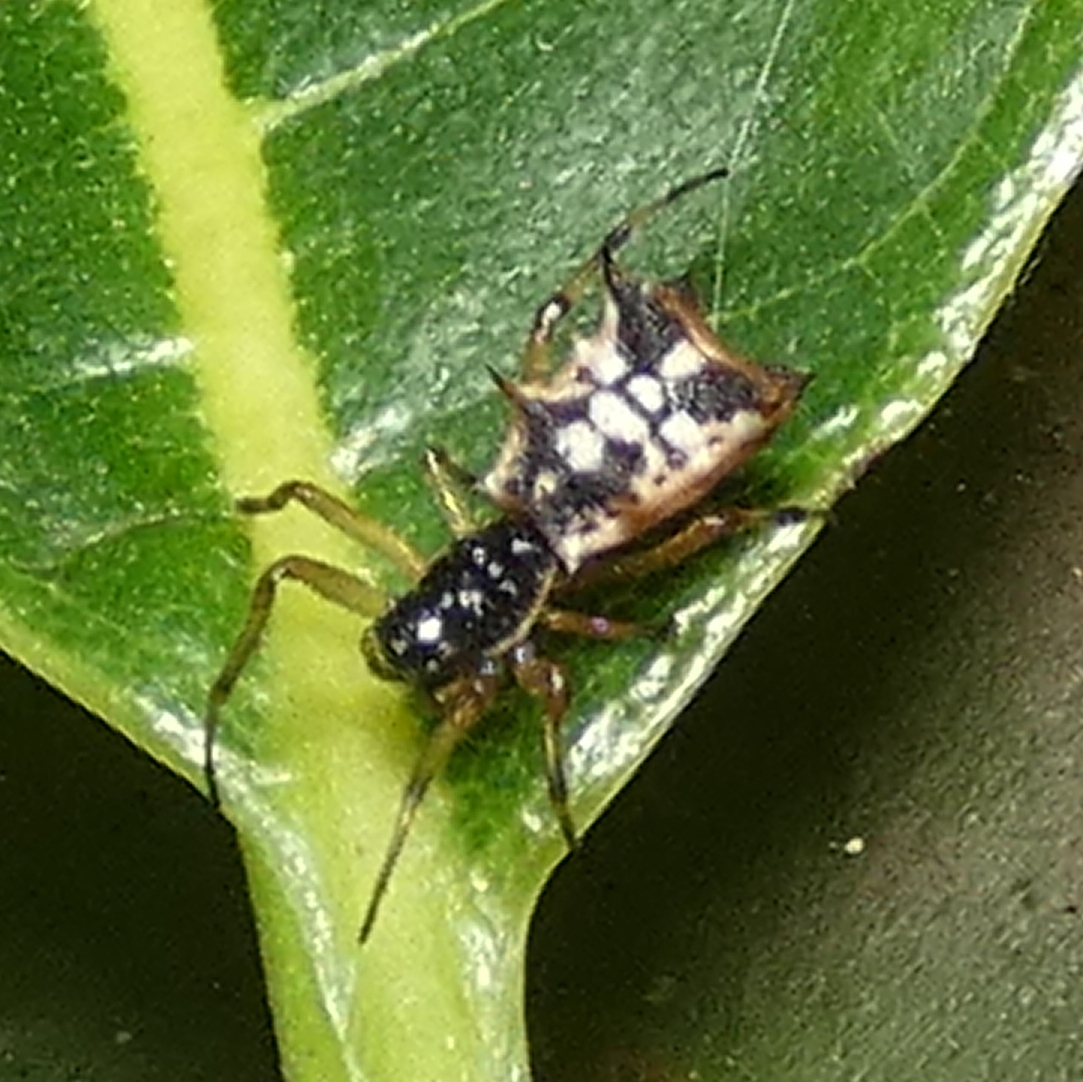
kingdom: Animalia
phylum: Arthropoda
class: Arachnida
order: Araneae
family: Araneidae
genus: Micrathena
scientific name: Micrathena picta
